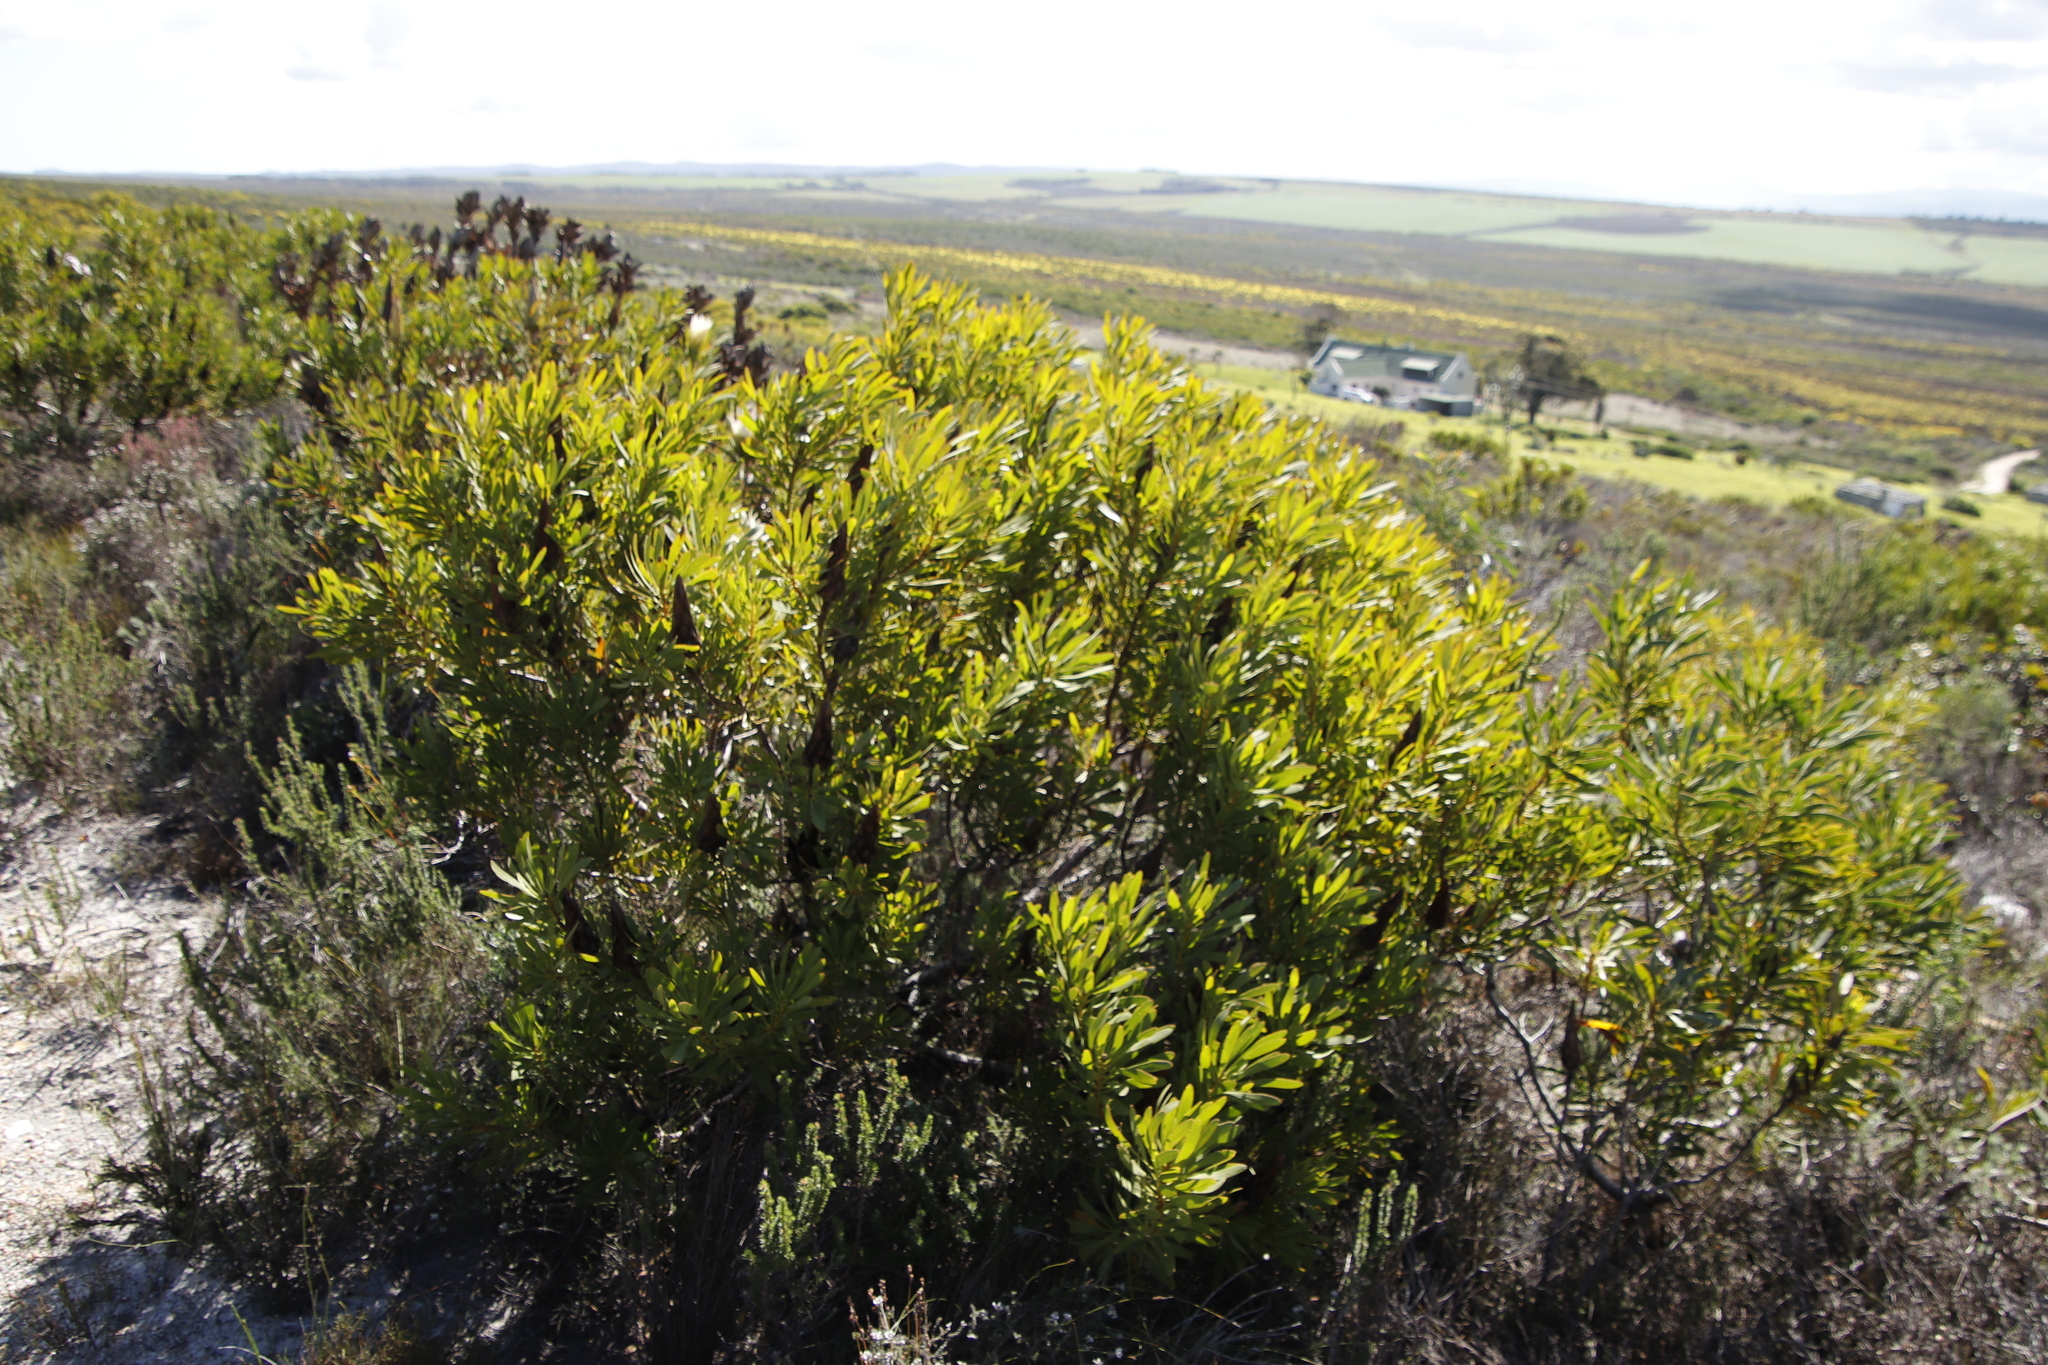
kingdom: Plantae
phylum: Tracheophyta
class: Magnoliopsida
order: Proteales
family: Proteaceae
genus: Protea
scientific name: Protea repens
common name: Sugarbush
